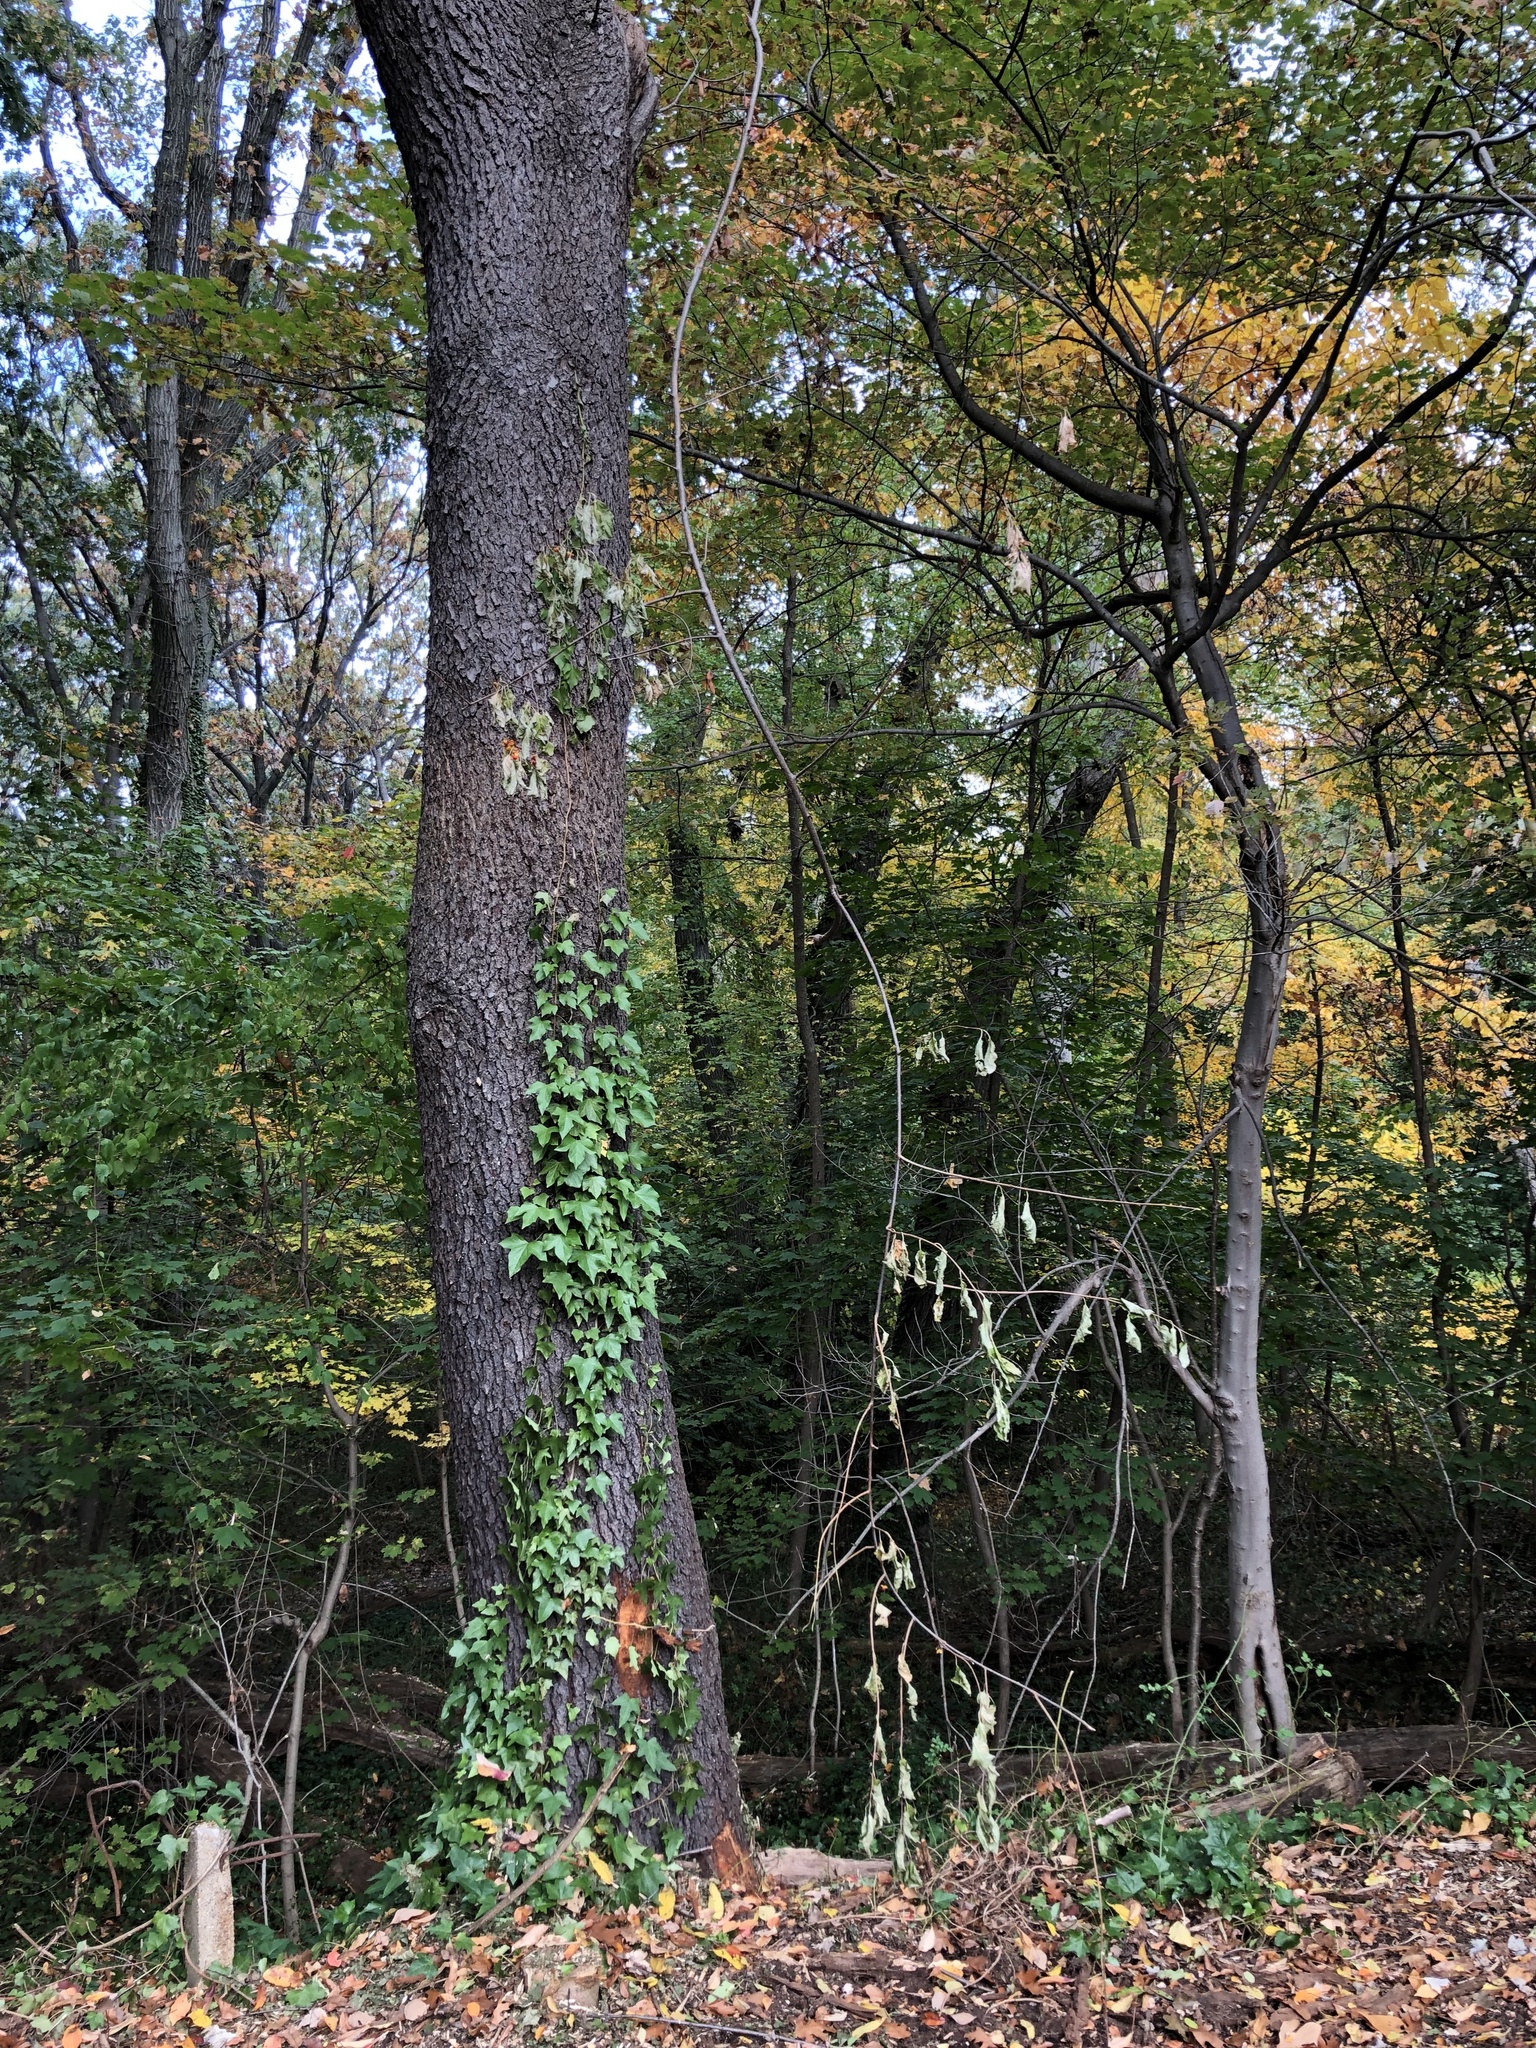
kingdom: Plantae
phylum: Tracheophyta
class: Magnoliopsida
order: Celastrales
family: Celastraceae
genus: Celastrus
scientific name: Celastrus orbiculatus
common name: Oriental bittersweet
